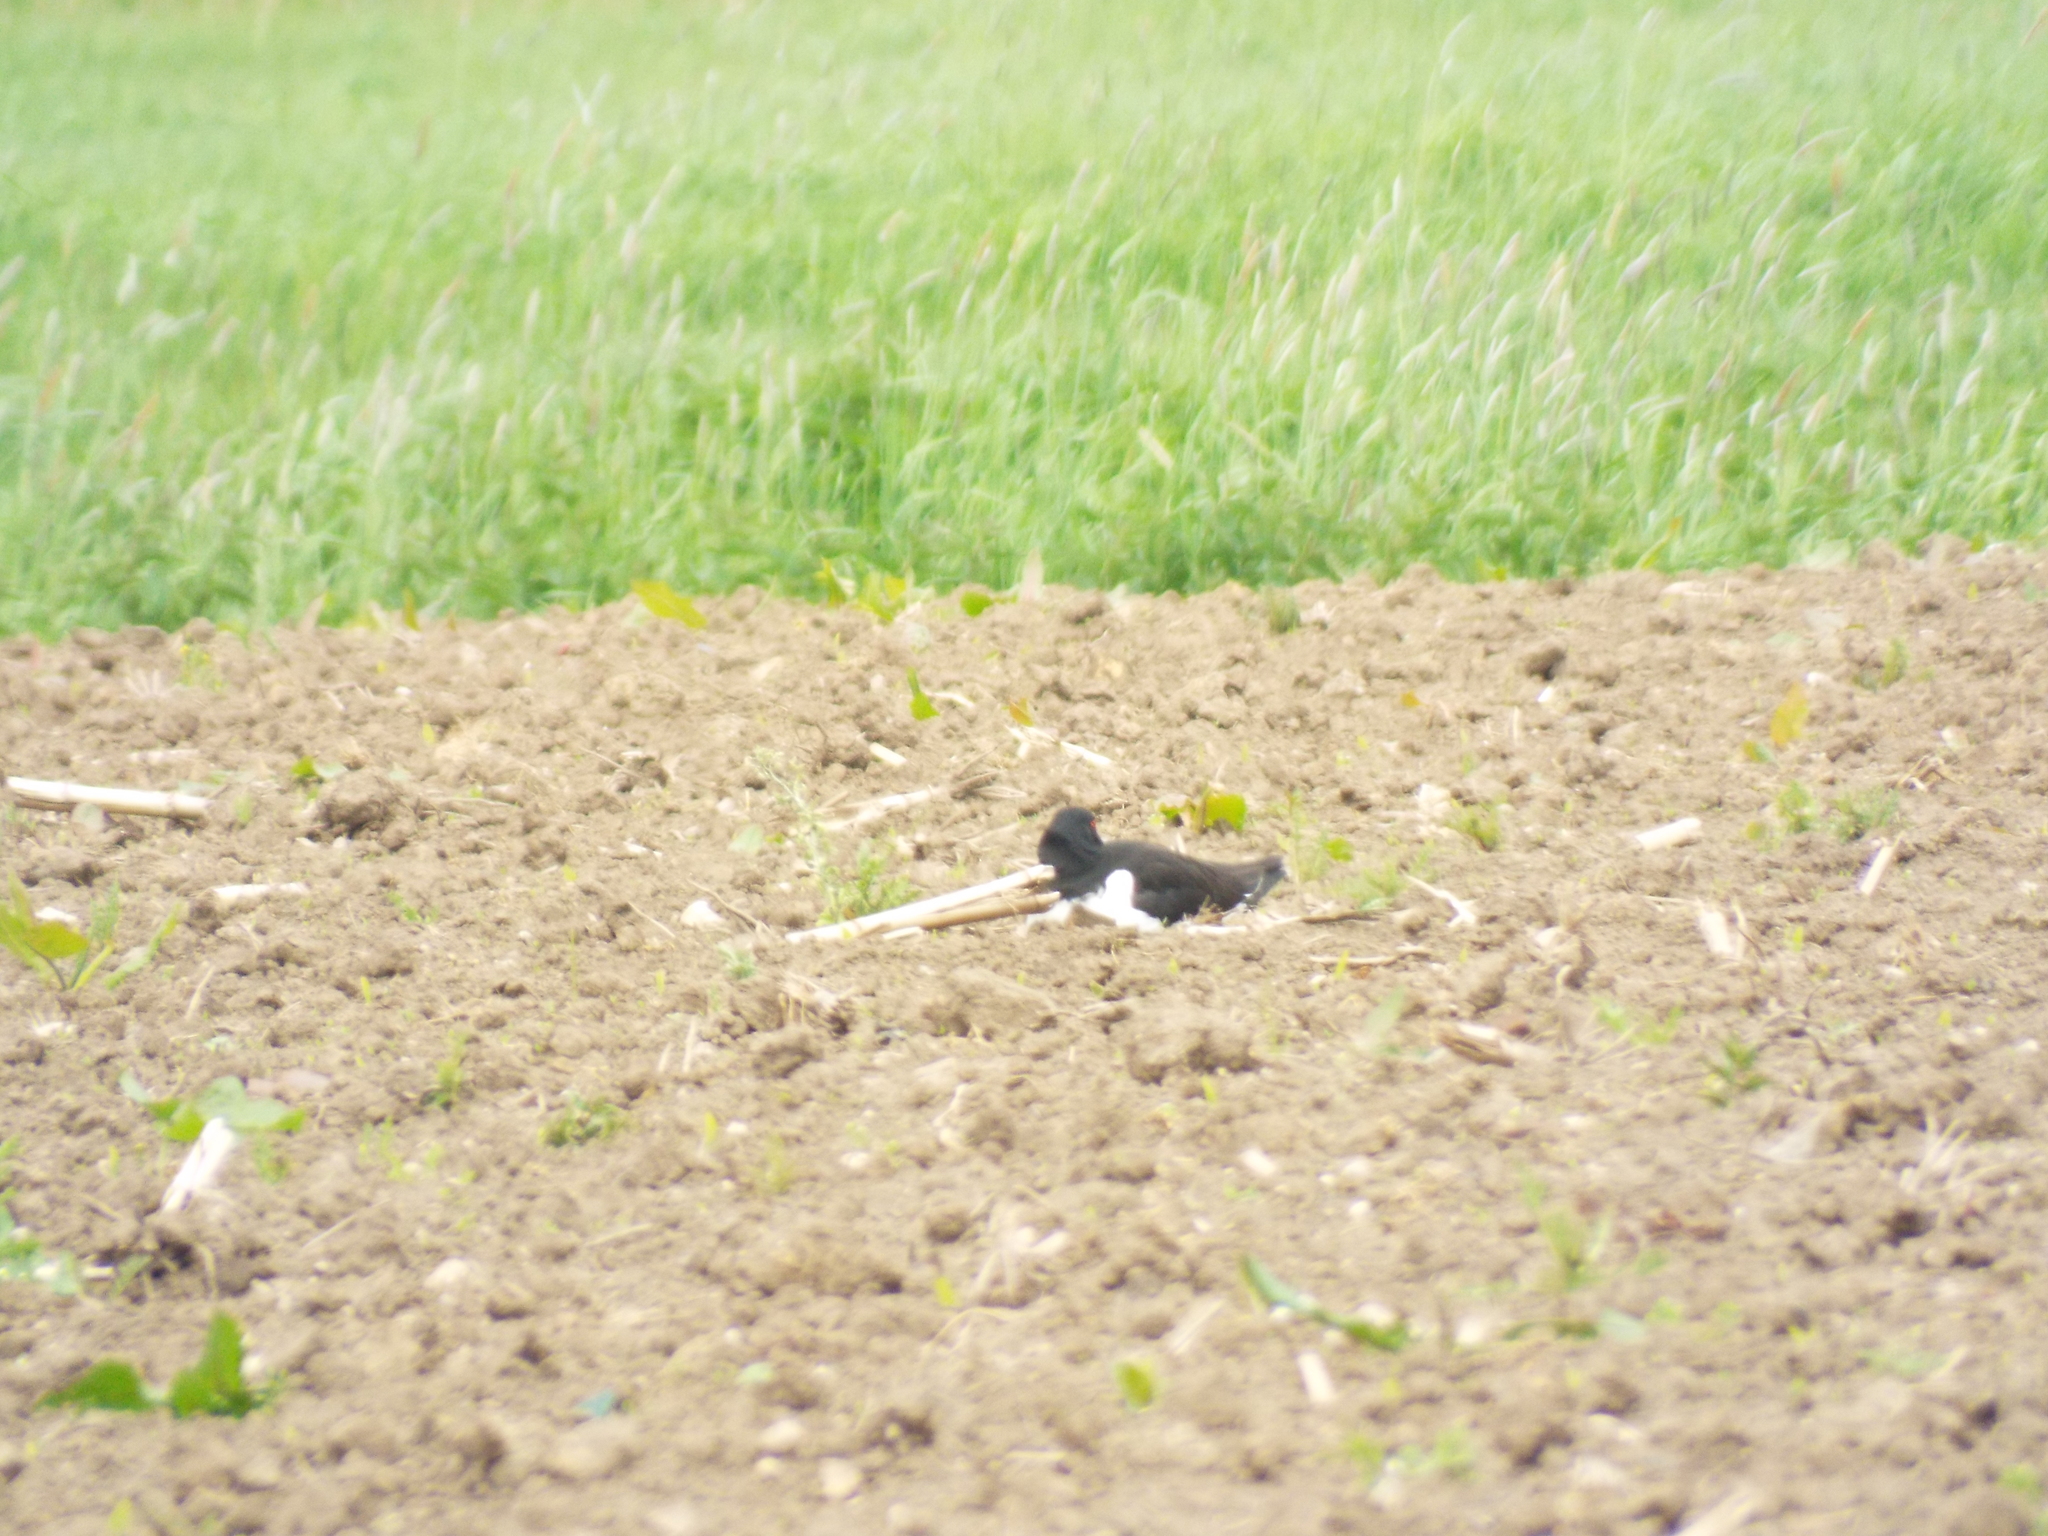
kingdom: Animalia
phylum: Chordata
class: Aves
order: Charadriiformes
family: Haematopodidae
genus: Haematopus
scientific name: Haematopus ostralegus
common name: Eurasian oystercatcher
